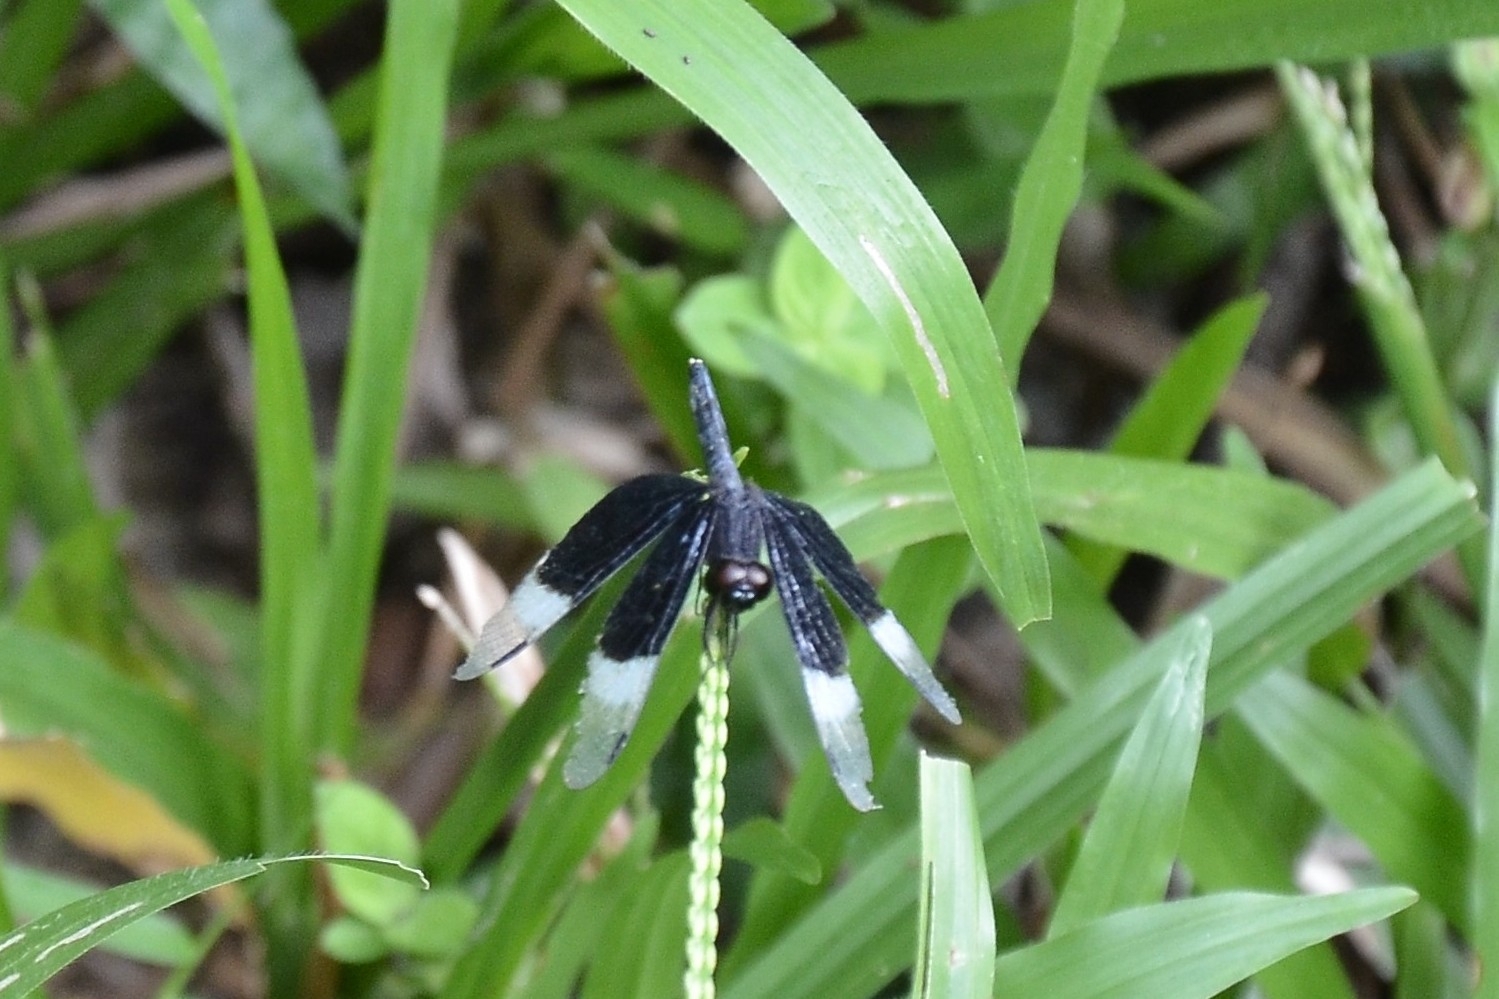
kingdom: Animalia
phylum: Arthropoda
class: Insecta
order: Odonata
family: Libellulidae
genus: Neurothemis
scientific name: Neurothemis tullia
